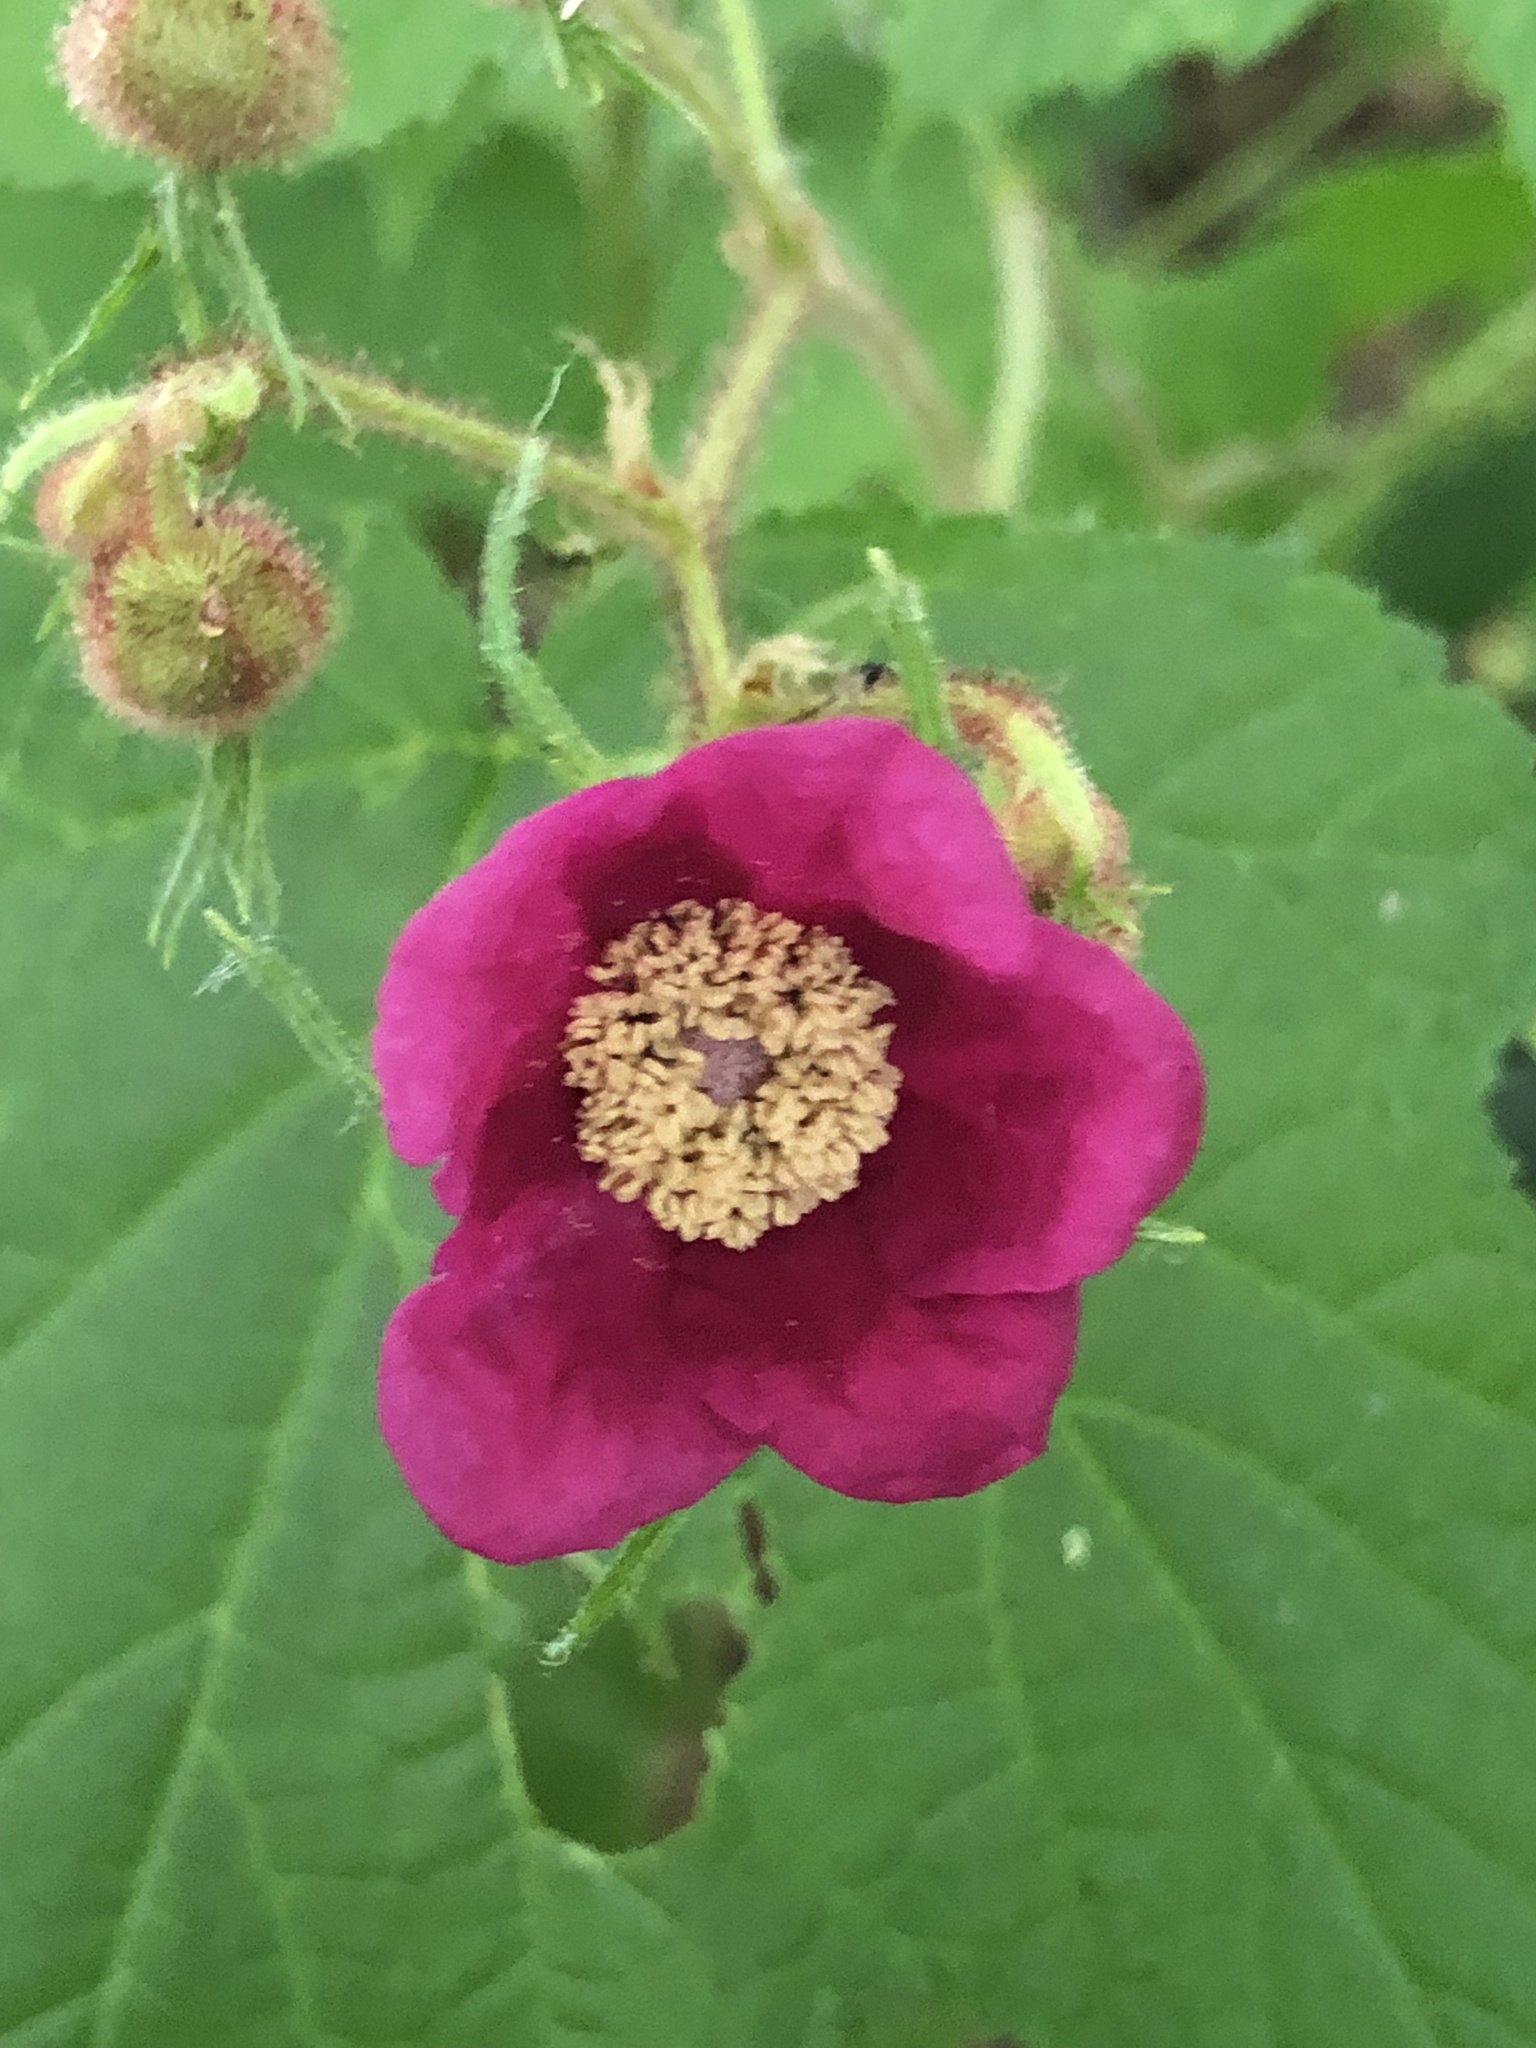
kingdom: Plantae
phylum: Tracheophyta
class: Magnoliopsida
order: Rosales
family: Rosaceae
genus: Rubus
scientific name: Rubus odoratus
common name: Purple-flowered raspberry
